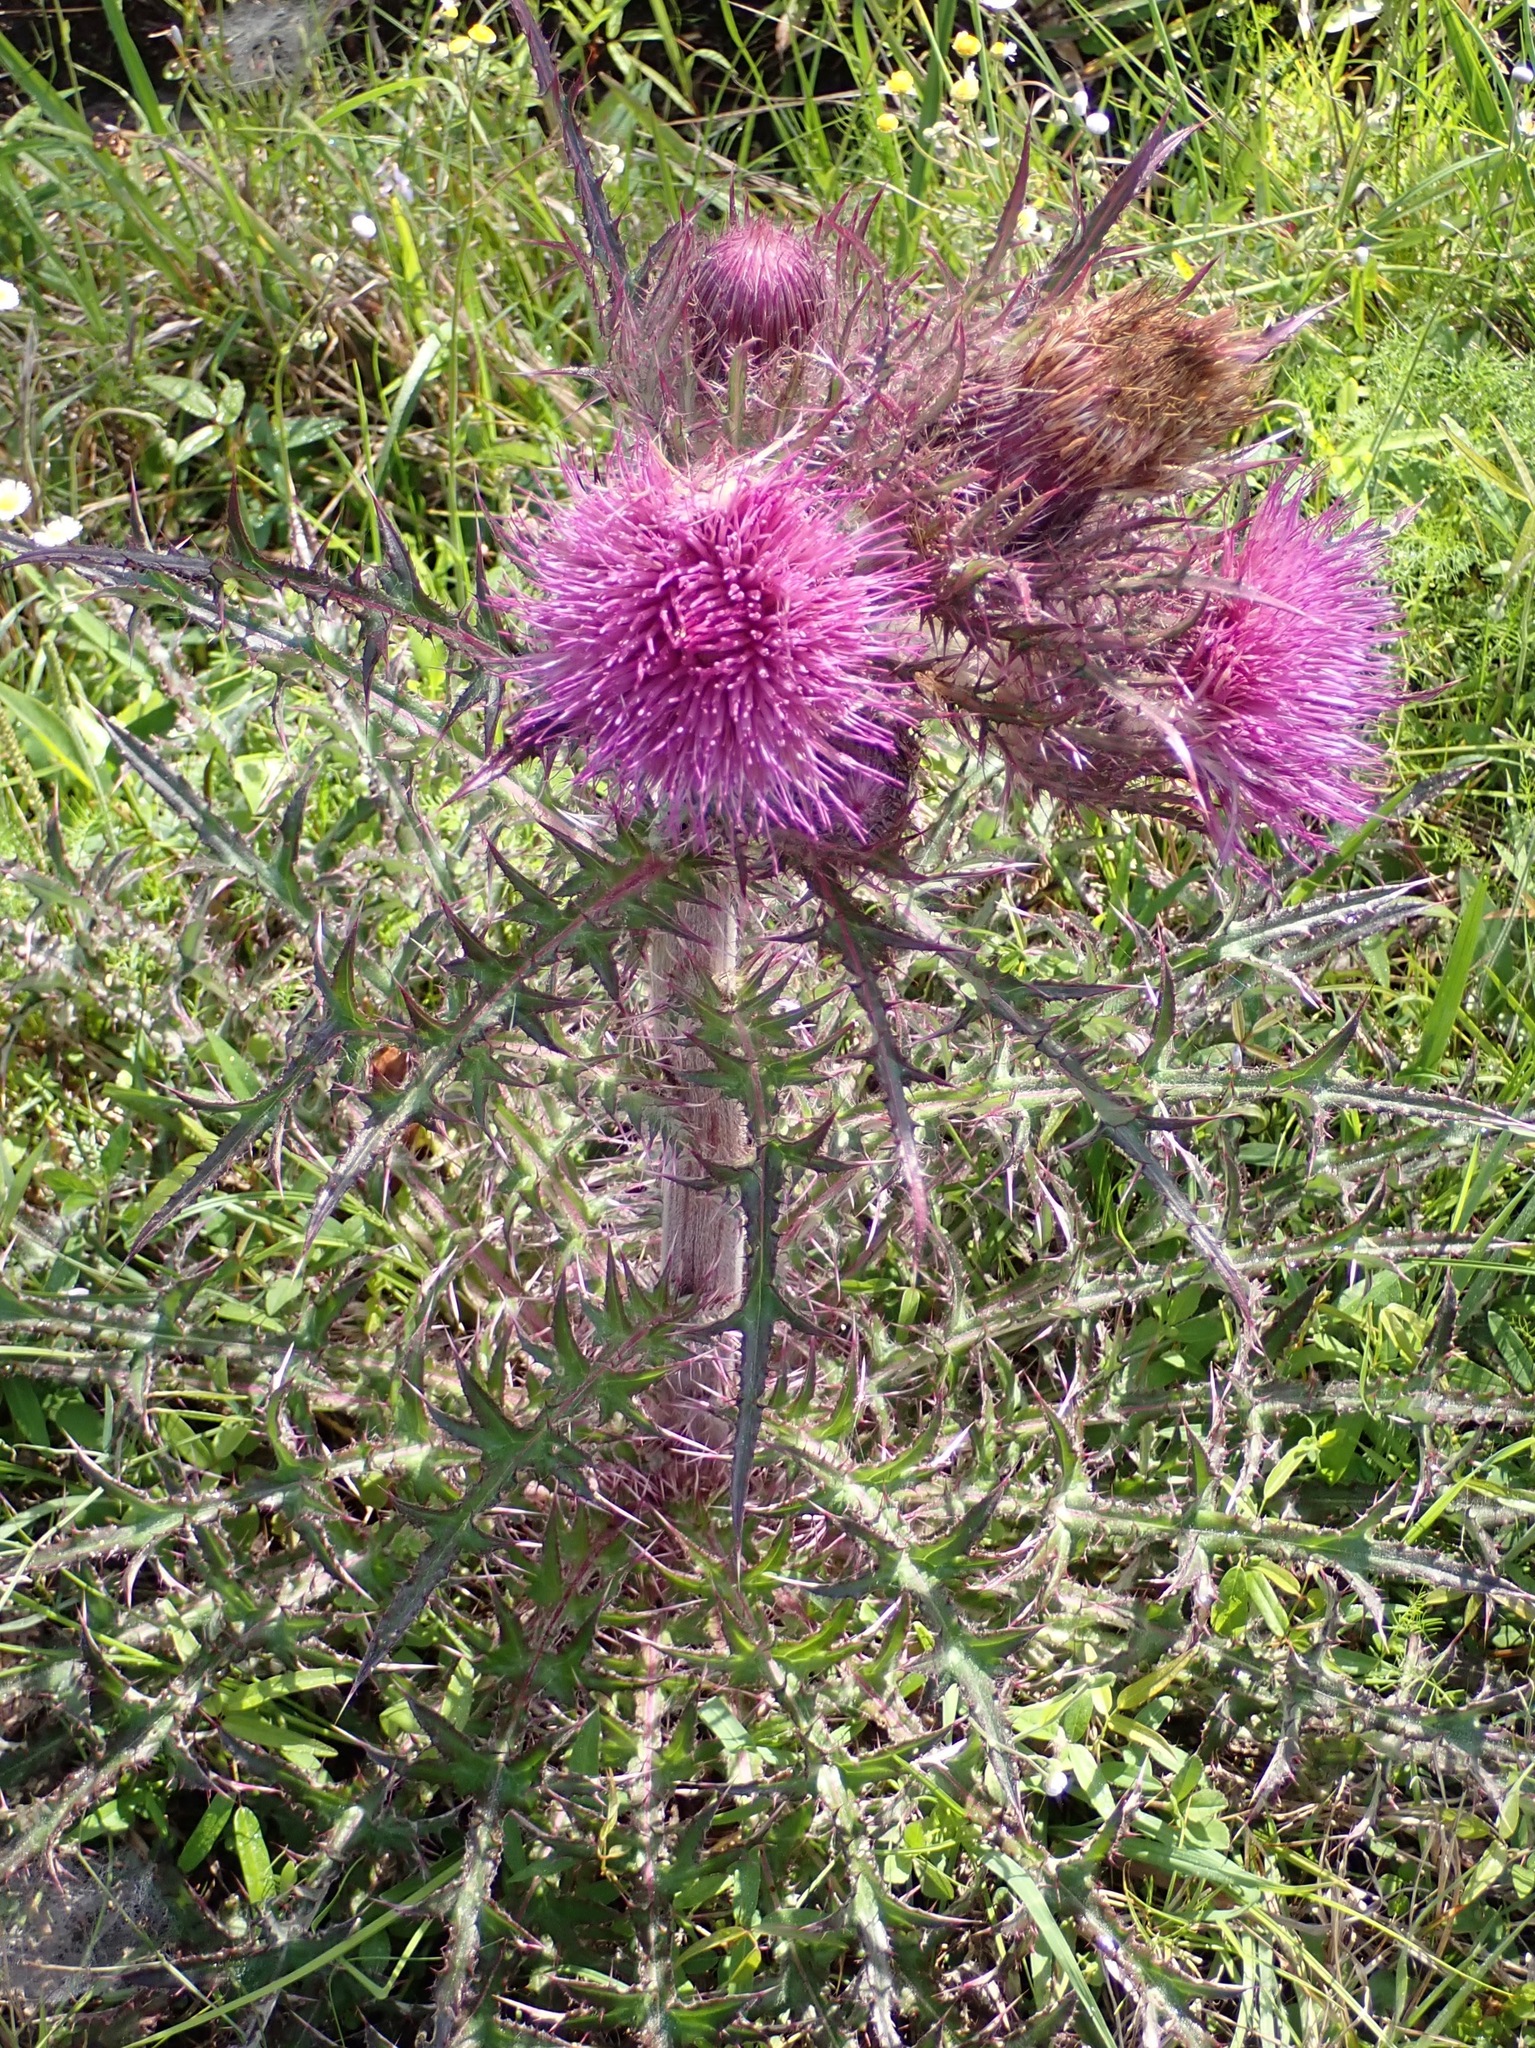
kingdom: Plantae
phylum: Tracheophyta
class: Magnoliopsida
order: Asterales
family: Asteraceae
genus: Cirsium
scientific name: Cirsium horridulum
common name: Bristly thistle
